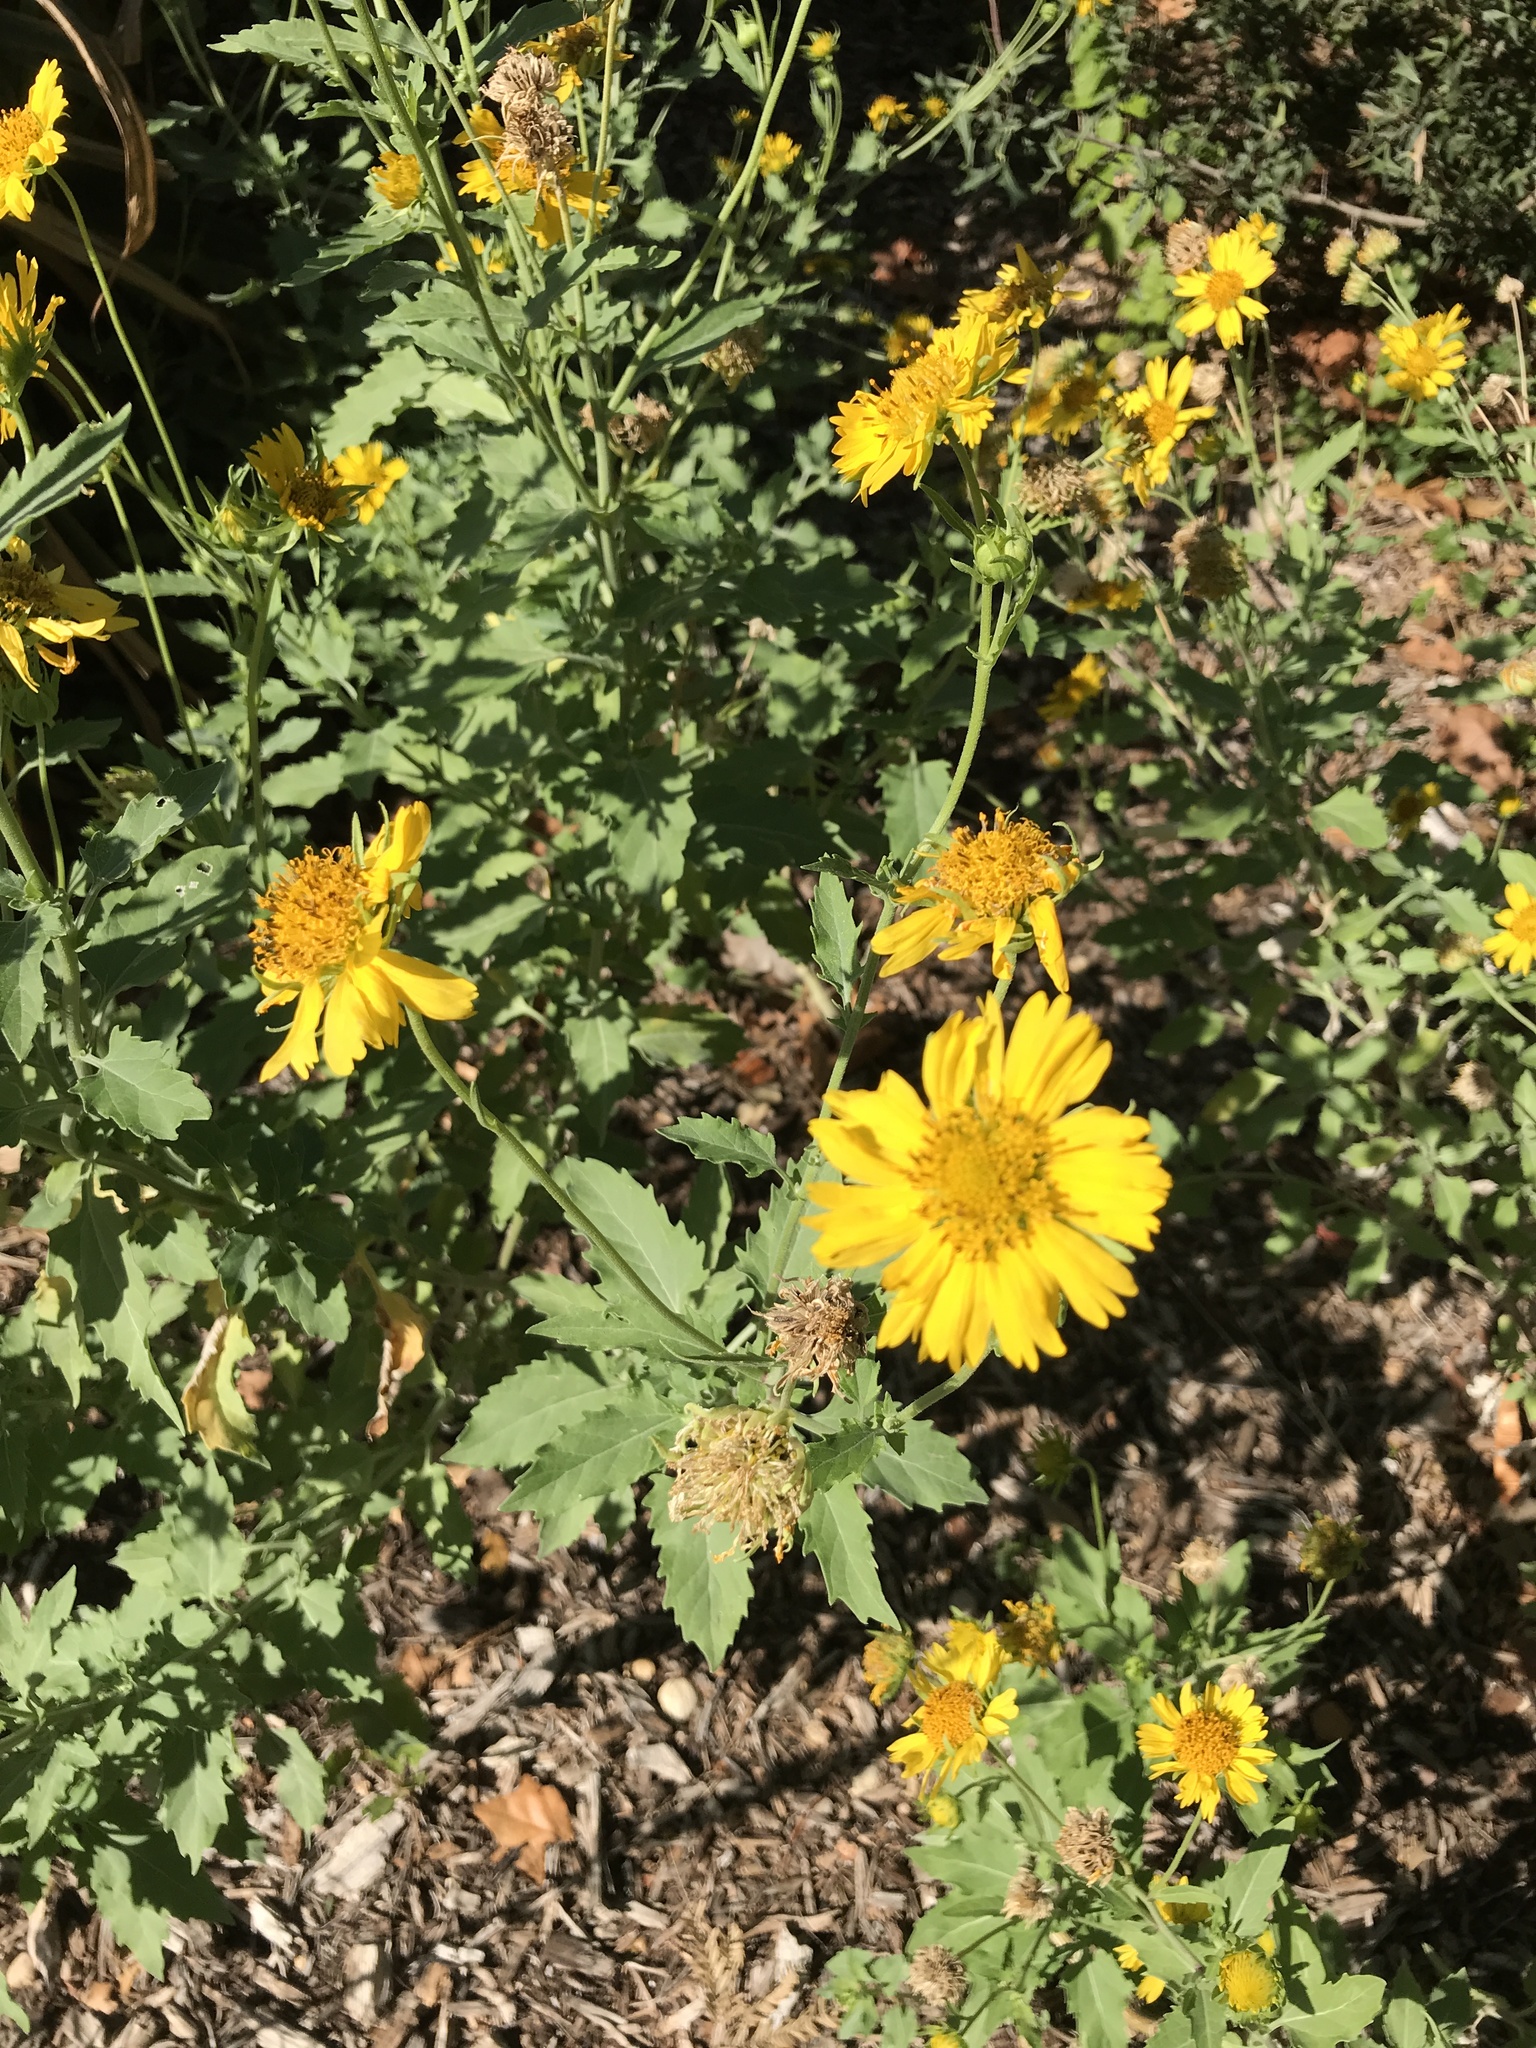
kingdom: Plantae
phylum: Tracheophyta
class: Magnoliopsida
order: Asterales
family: Asteraceae
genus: Verbesina
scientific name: Verbesina encelioides
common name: Golden crownbeard
